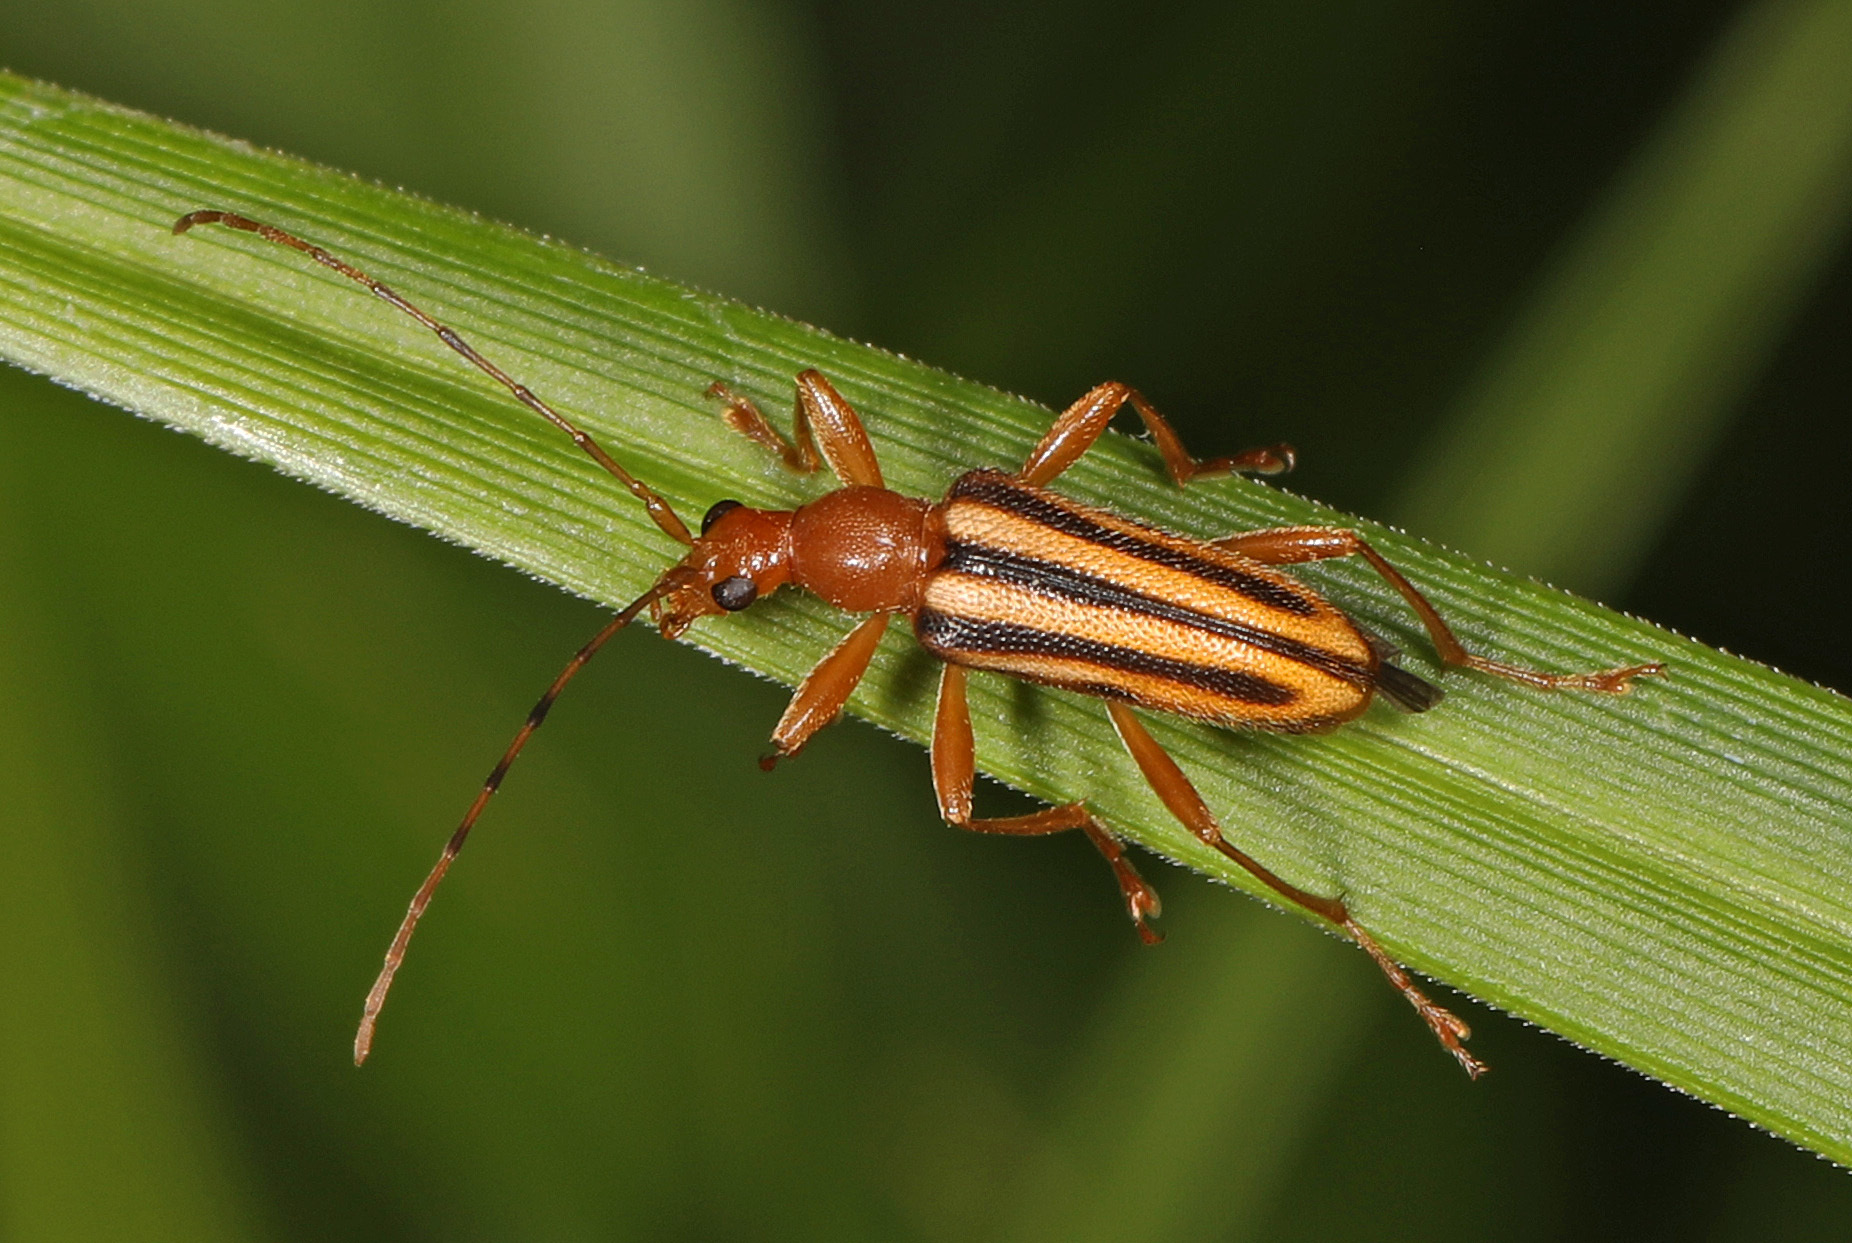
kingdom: Animalia
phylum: Arthropoda
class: Insecta
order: Coleoptera
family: Cerambycidae
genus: Metacmaeops
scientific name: Metacmaeops vittata
